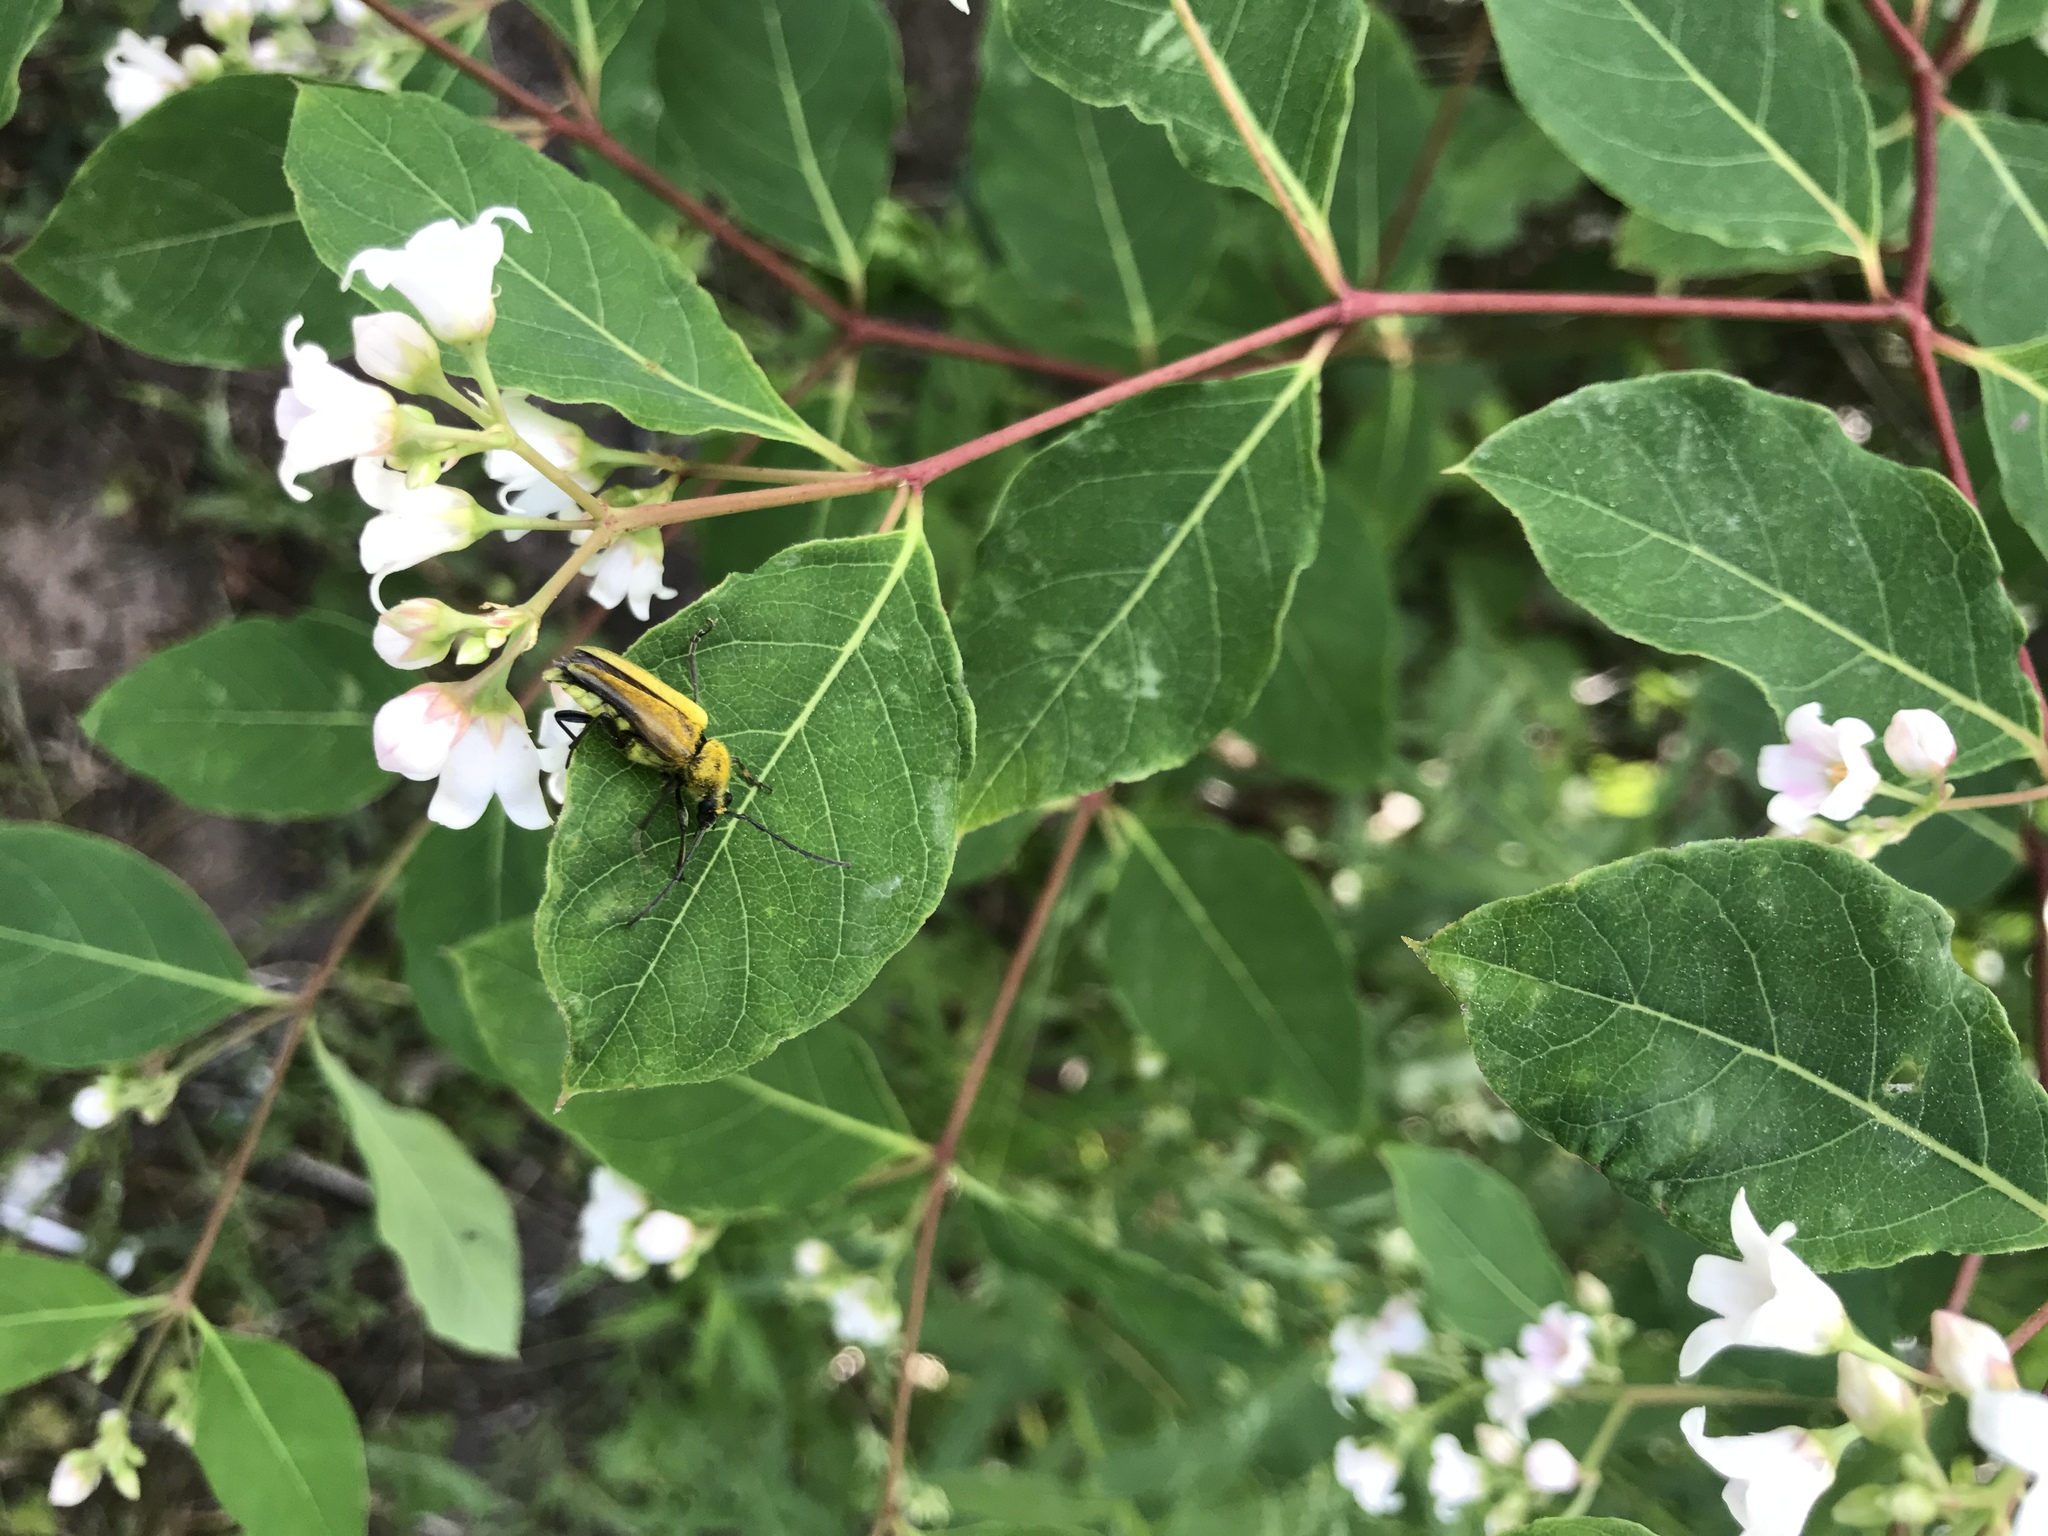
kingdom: Animalia
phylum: Arthropoda
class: Insecta
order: Coleoptera
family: Cerambycidae
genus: Cosmosalia
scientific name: Cosmosalia chrysocoma
